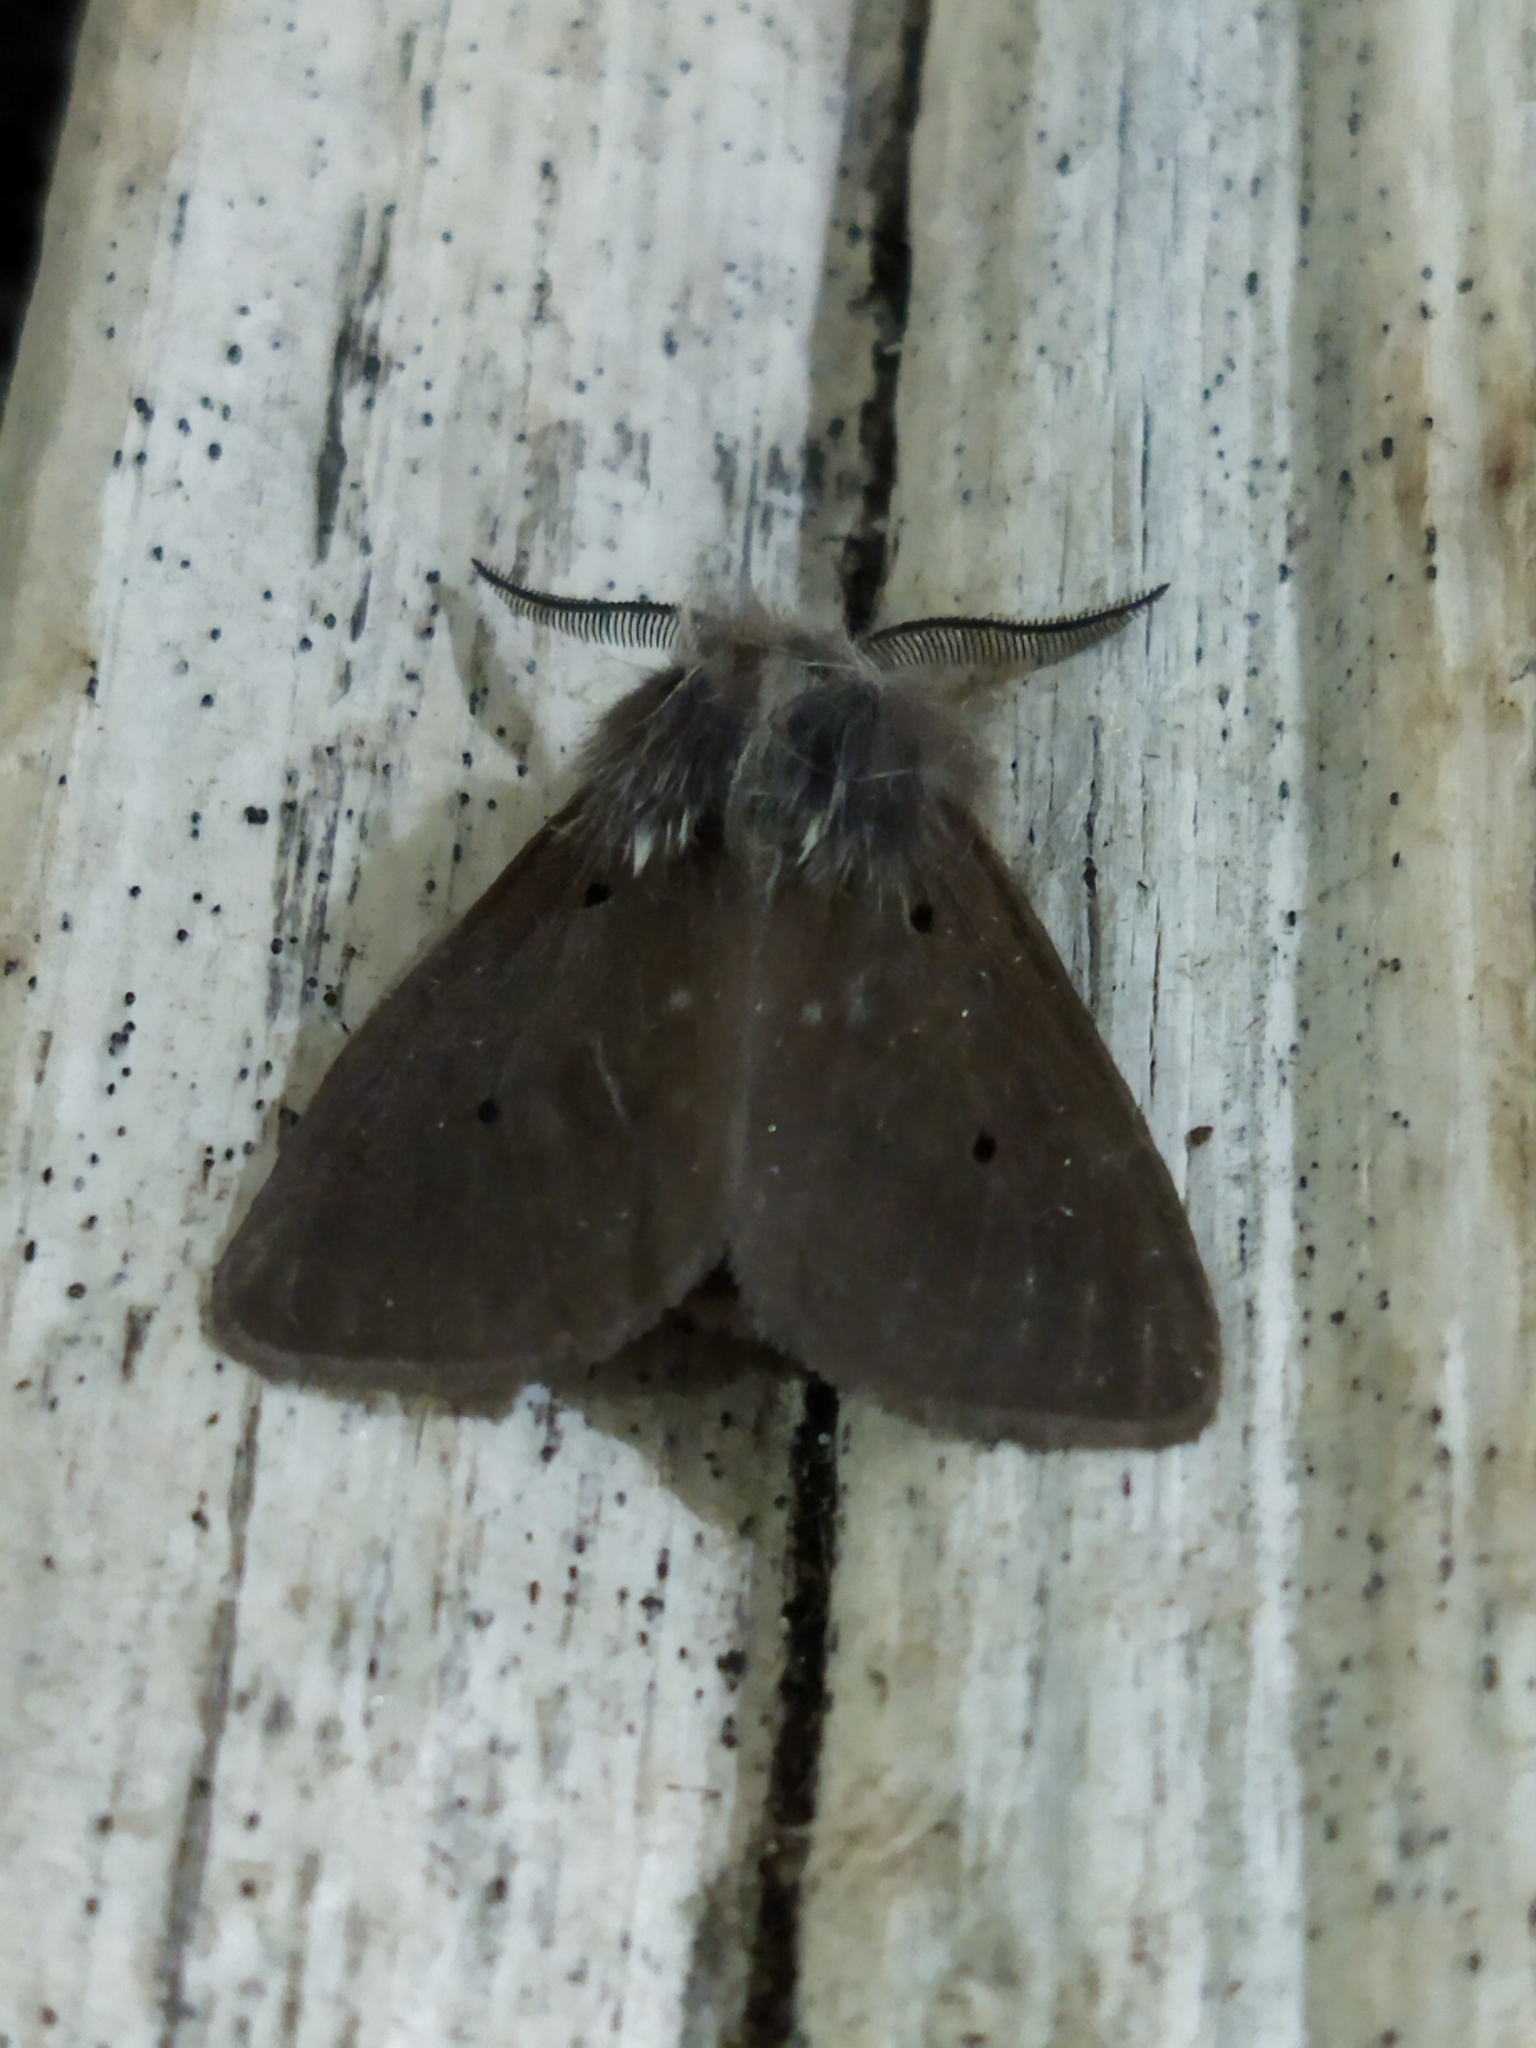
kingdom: Animalia
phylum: Arthropoda
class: Insecta
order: Lepidoptera
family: Erebidae
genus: Diaphora
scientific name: Diaphora mendica
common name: Muslin moth
